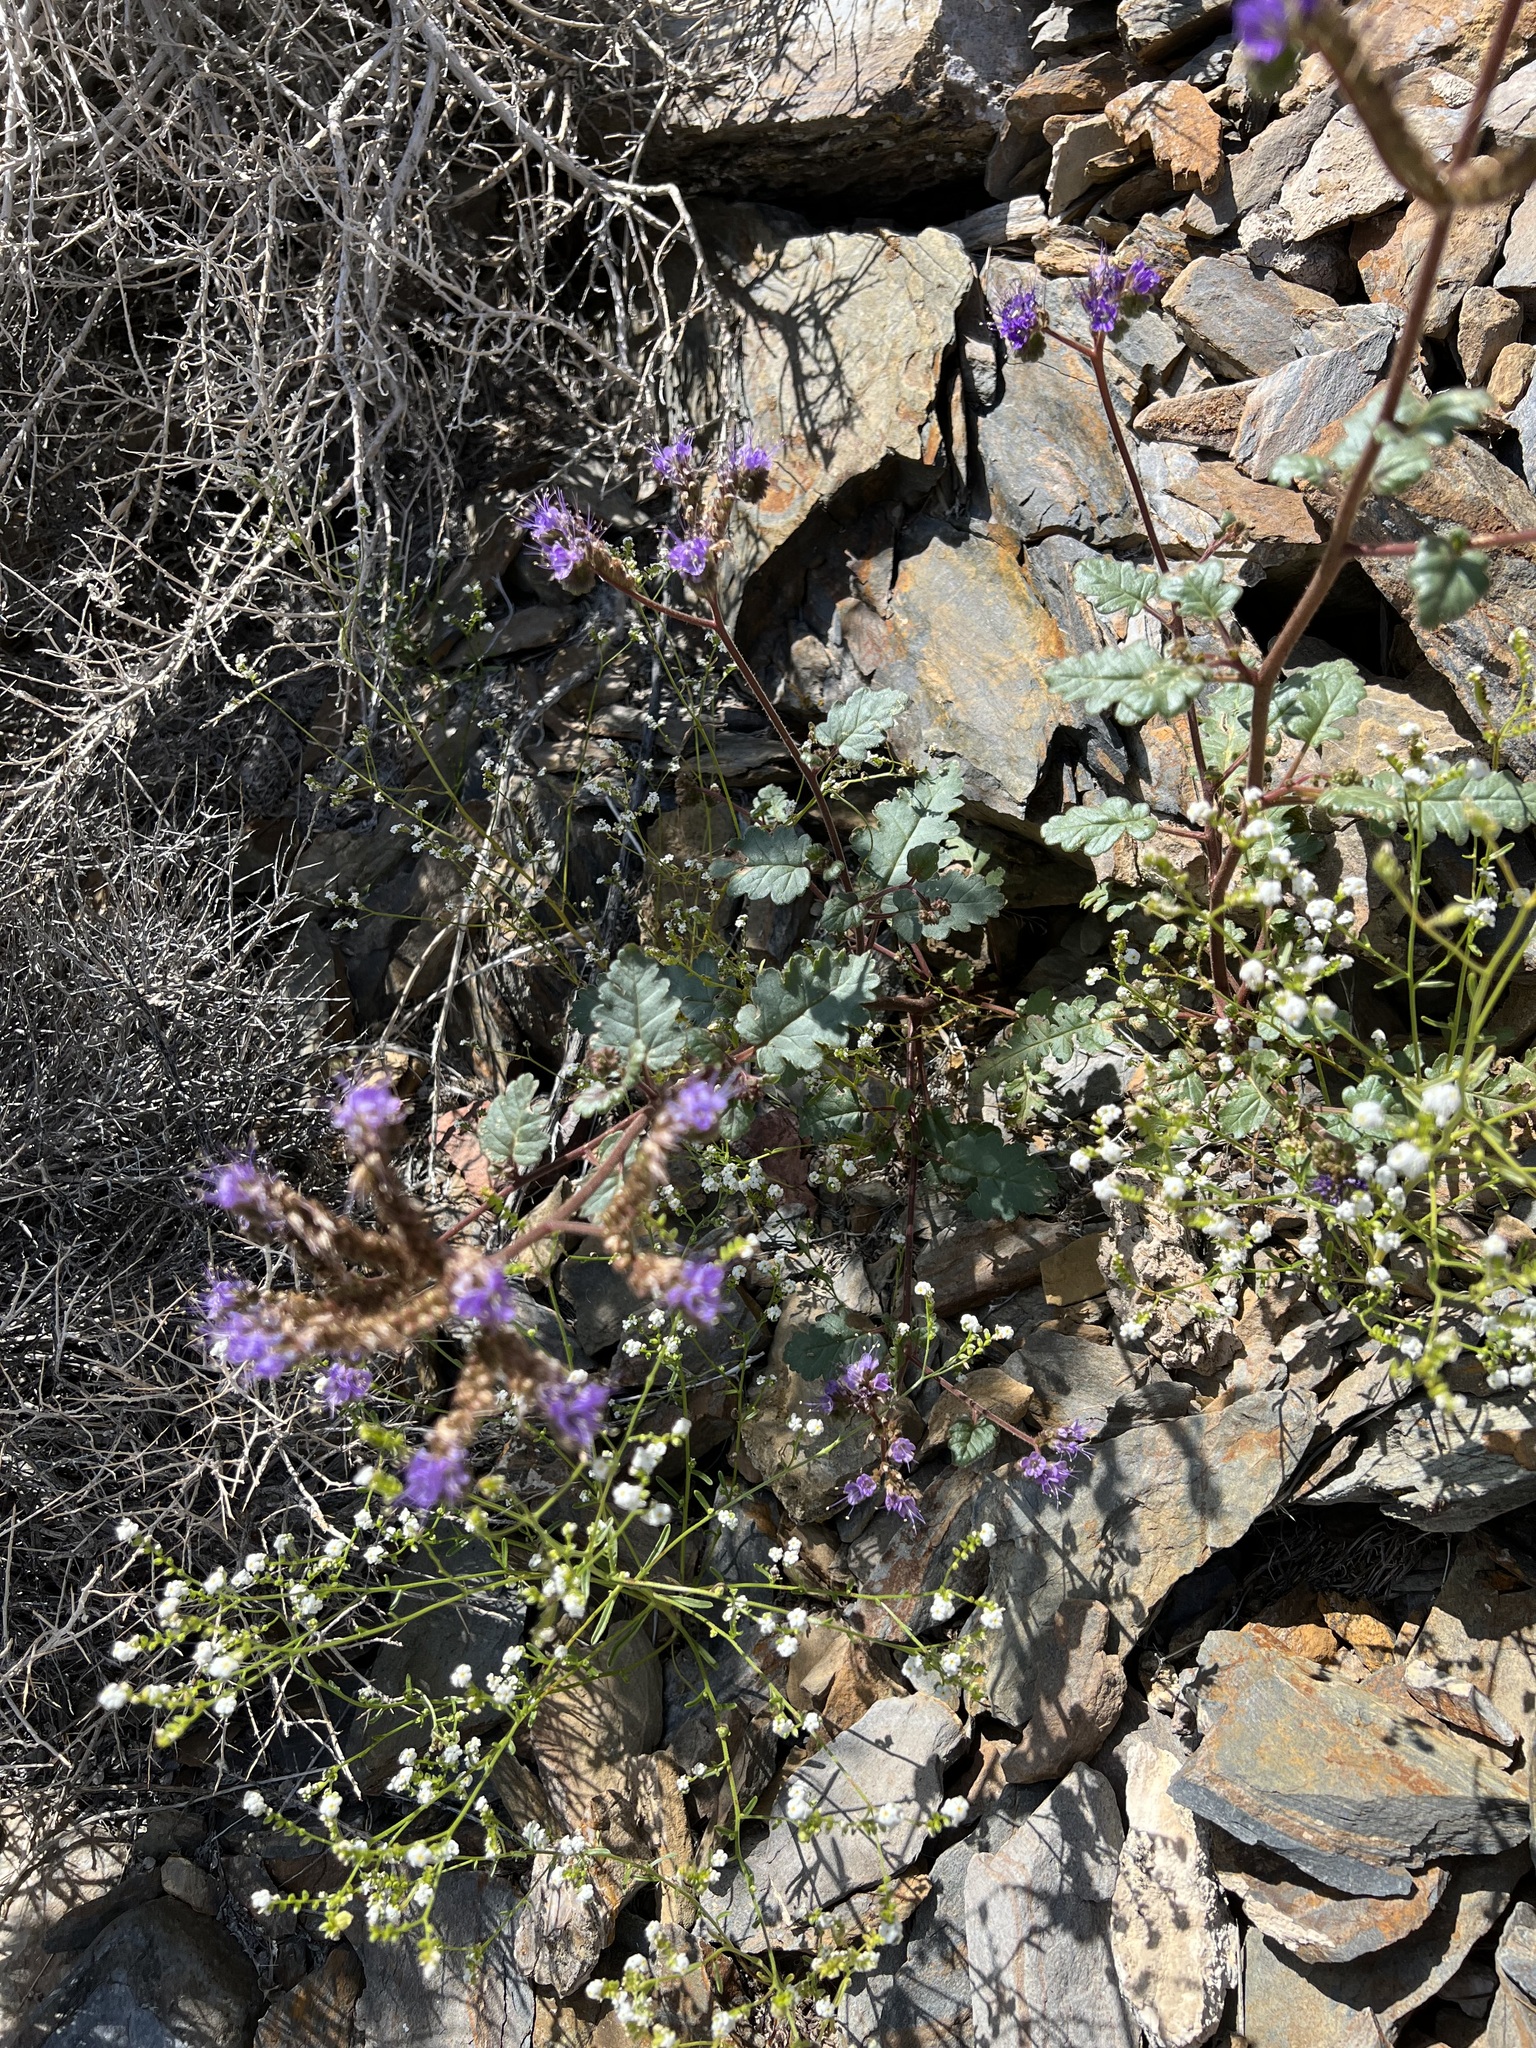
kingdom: Plantae
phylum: Tracheophyta
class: Magnoliopsida
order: Boraginales
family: Hydrophyllaceae
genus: Phacelia
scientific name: Phacelia crenulata
